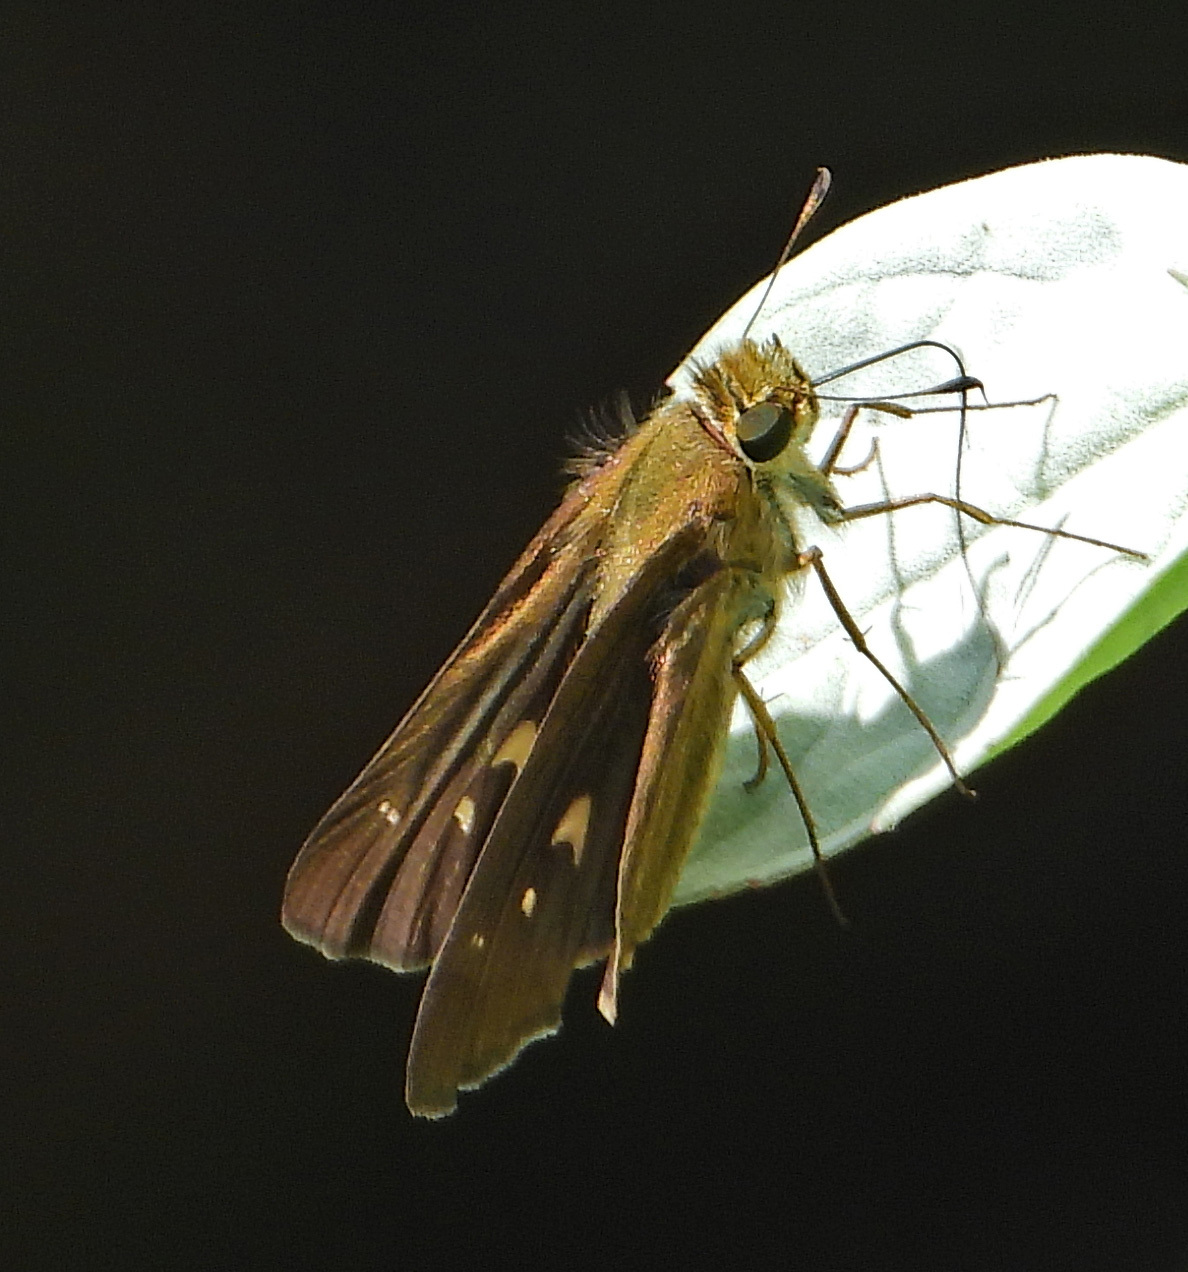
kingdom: Animalia
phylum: Arthropoda
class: Insecta
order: Lepidoptera
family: Hesperiidae
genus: Panoquina
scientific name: Panoquina ocola
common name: Ocola skipper
